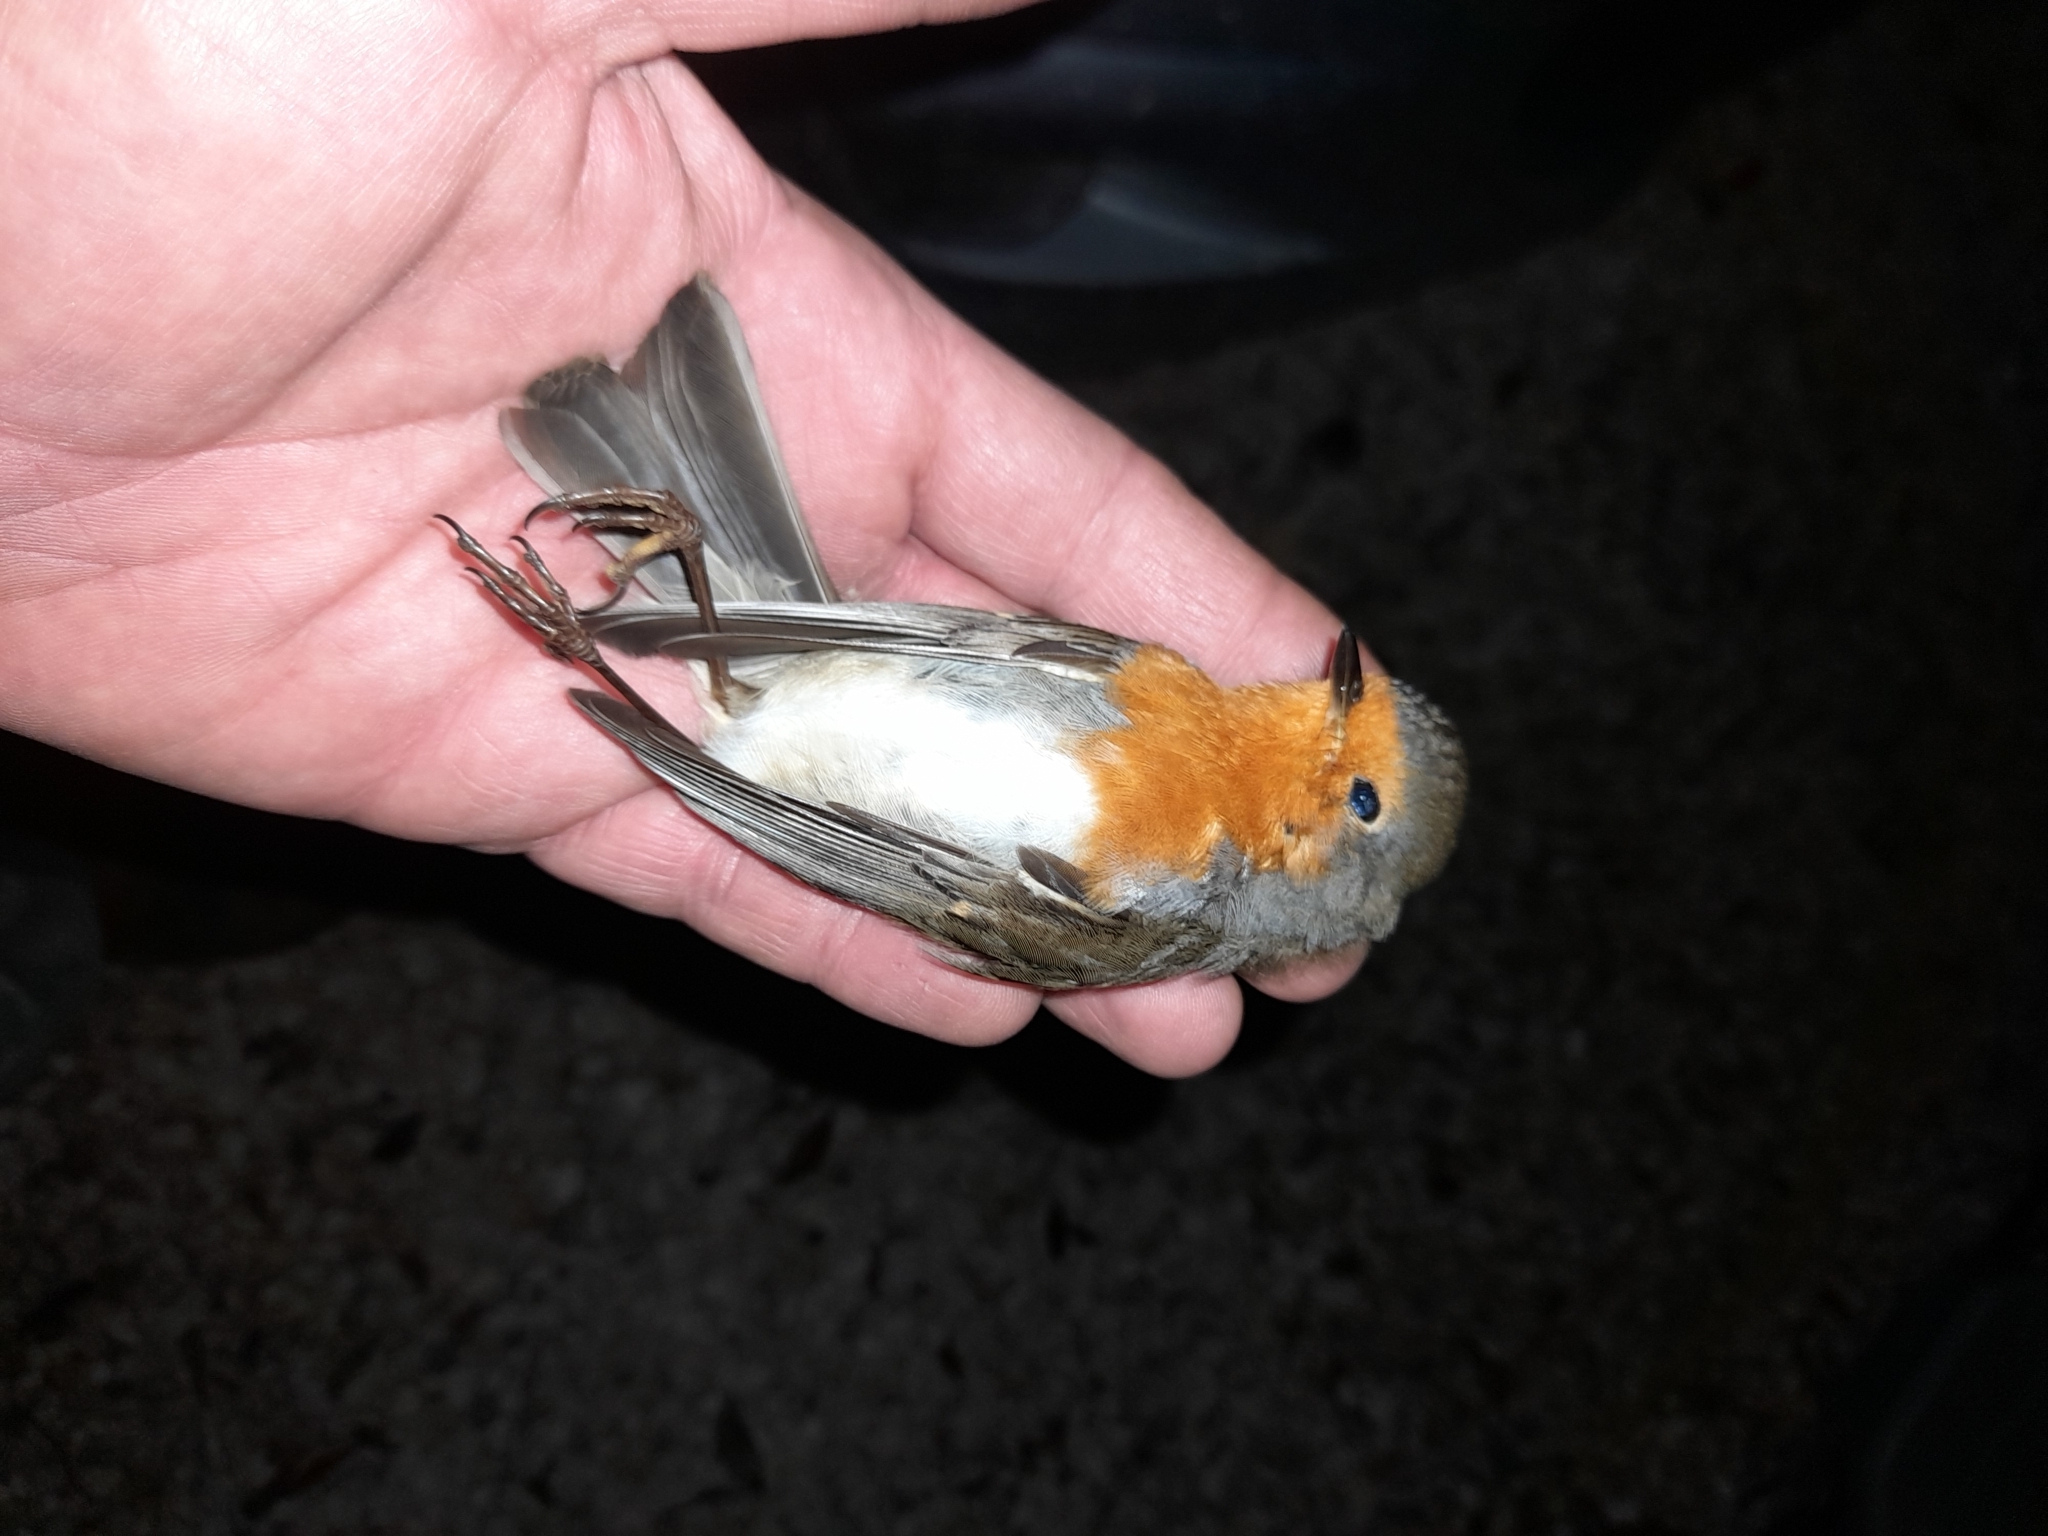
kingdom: Animalia
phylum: Chordata
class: Aves
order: Passeriformes
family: Muscicapidae
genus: Erithacus
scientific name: Erithacus rubecula
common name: European robin
